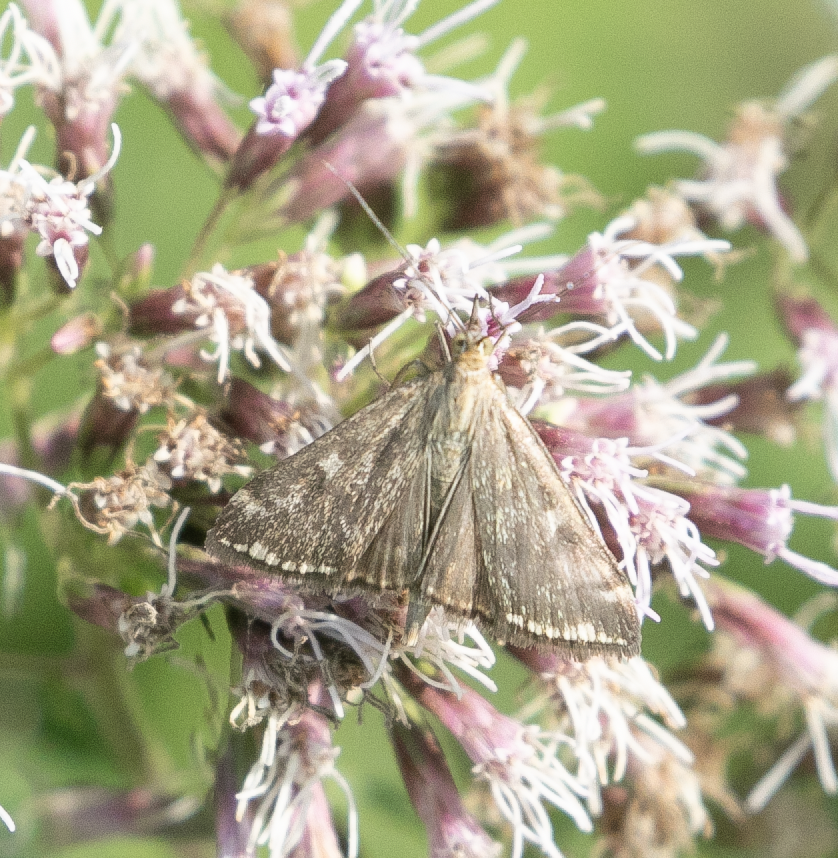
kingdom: Animalia
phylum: Arthropoda
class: Insecta
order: Lepidoptera
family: Crambidae
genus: Loxostege
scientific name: Loxostege sticticalis
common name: Crambid moth
